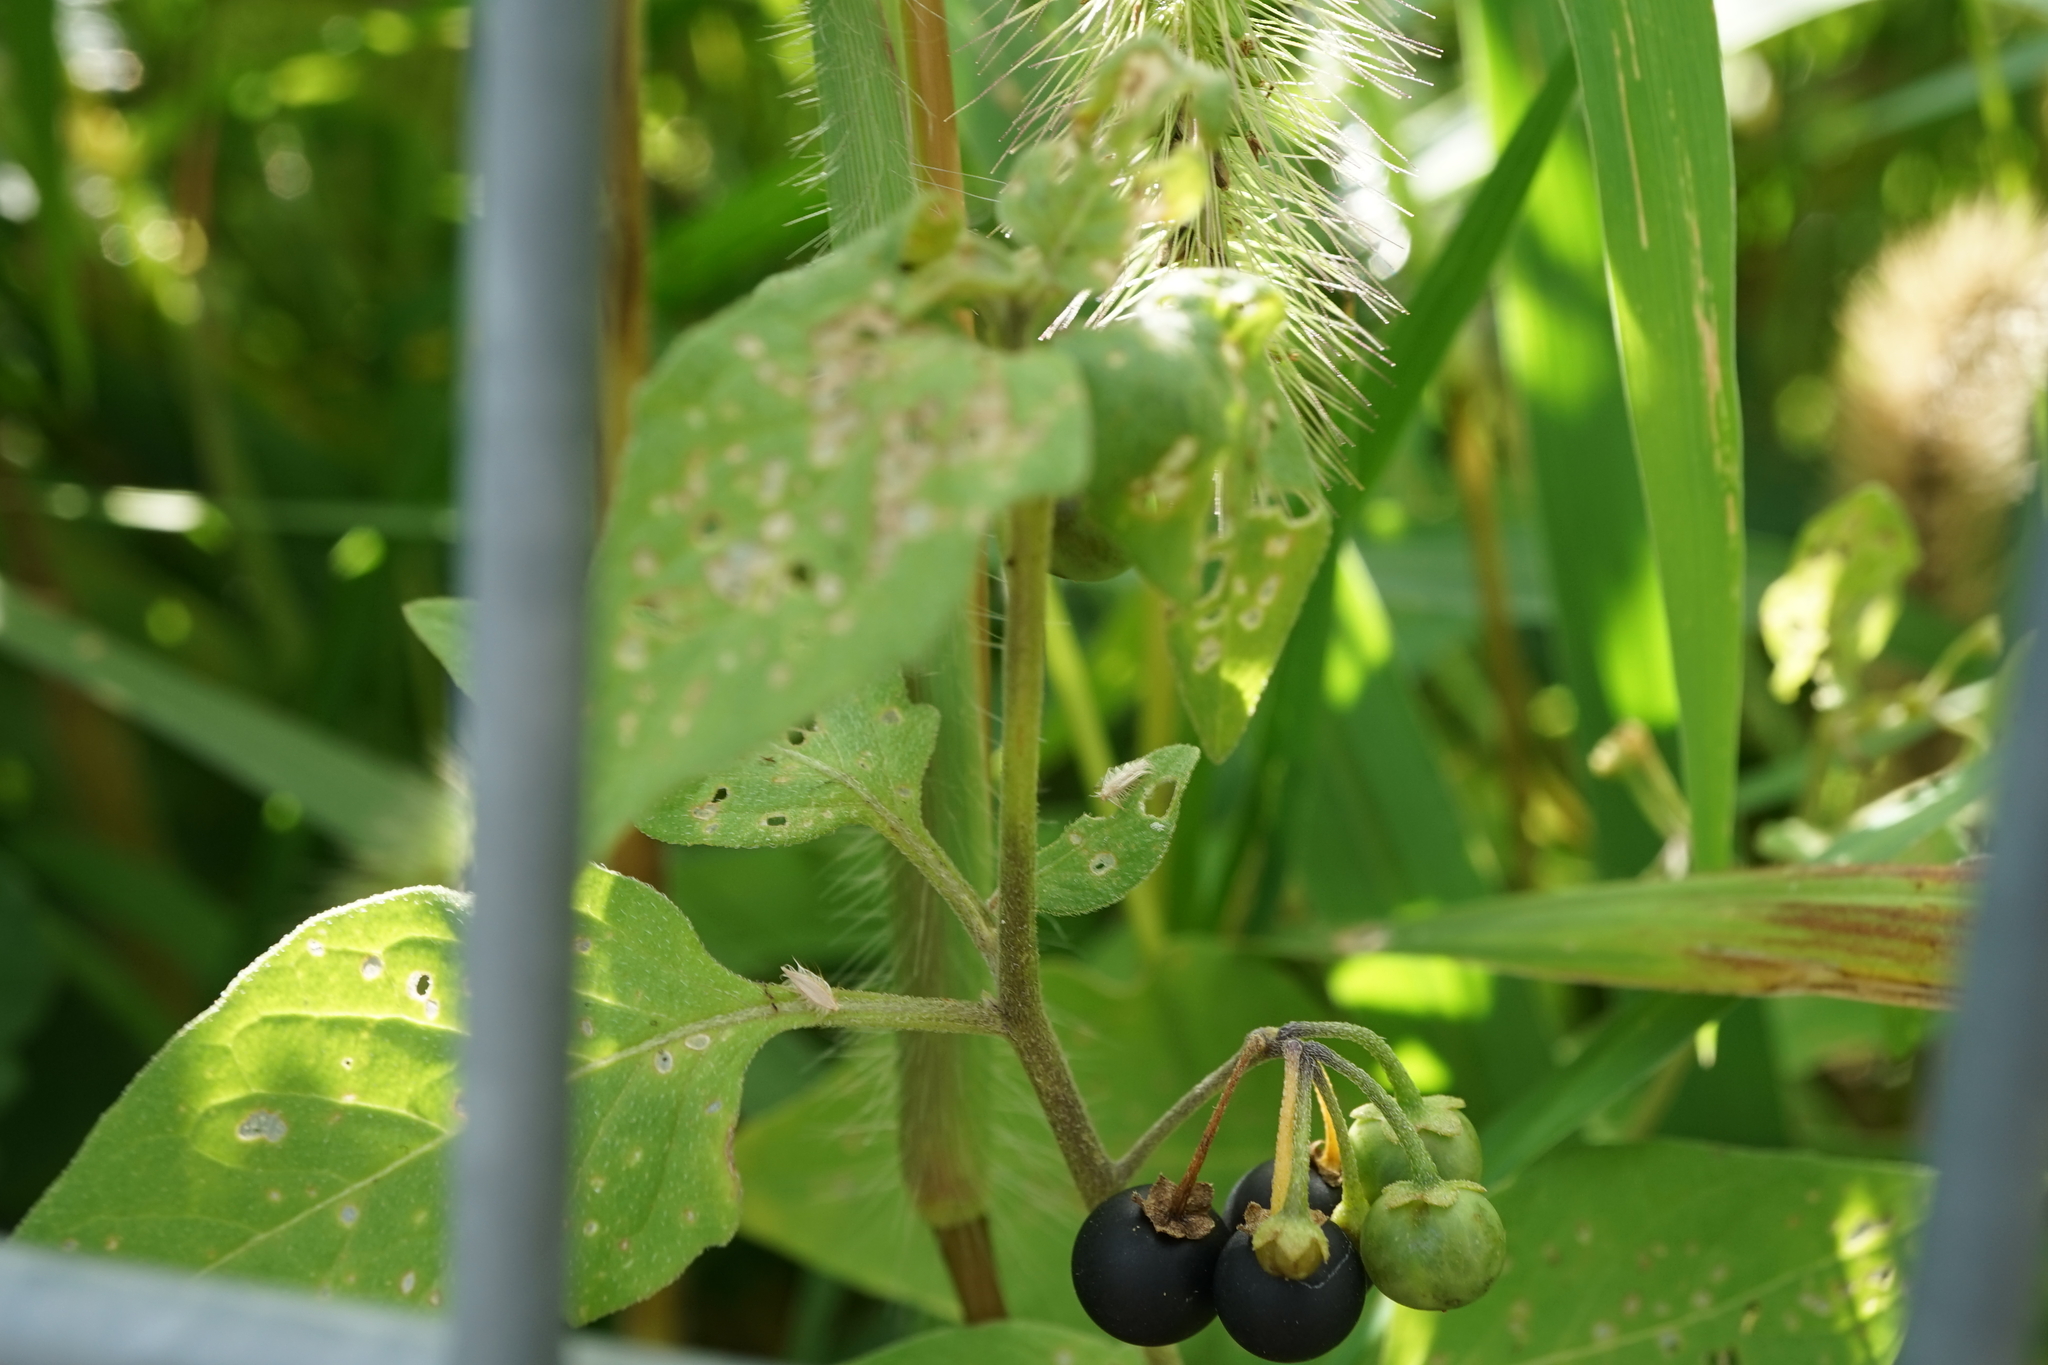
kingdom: Plantae
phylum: Tracheophyta
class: Magnoliopsida
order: Solanales
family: Solanaceae
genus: Solanum
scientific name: Solanum nigrum
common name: Black nightshade
